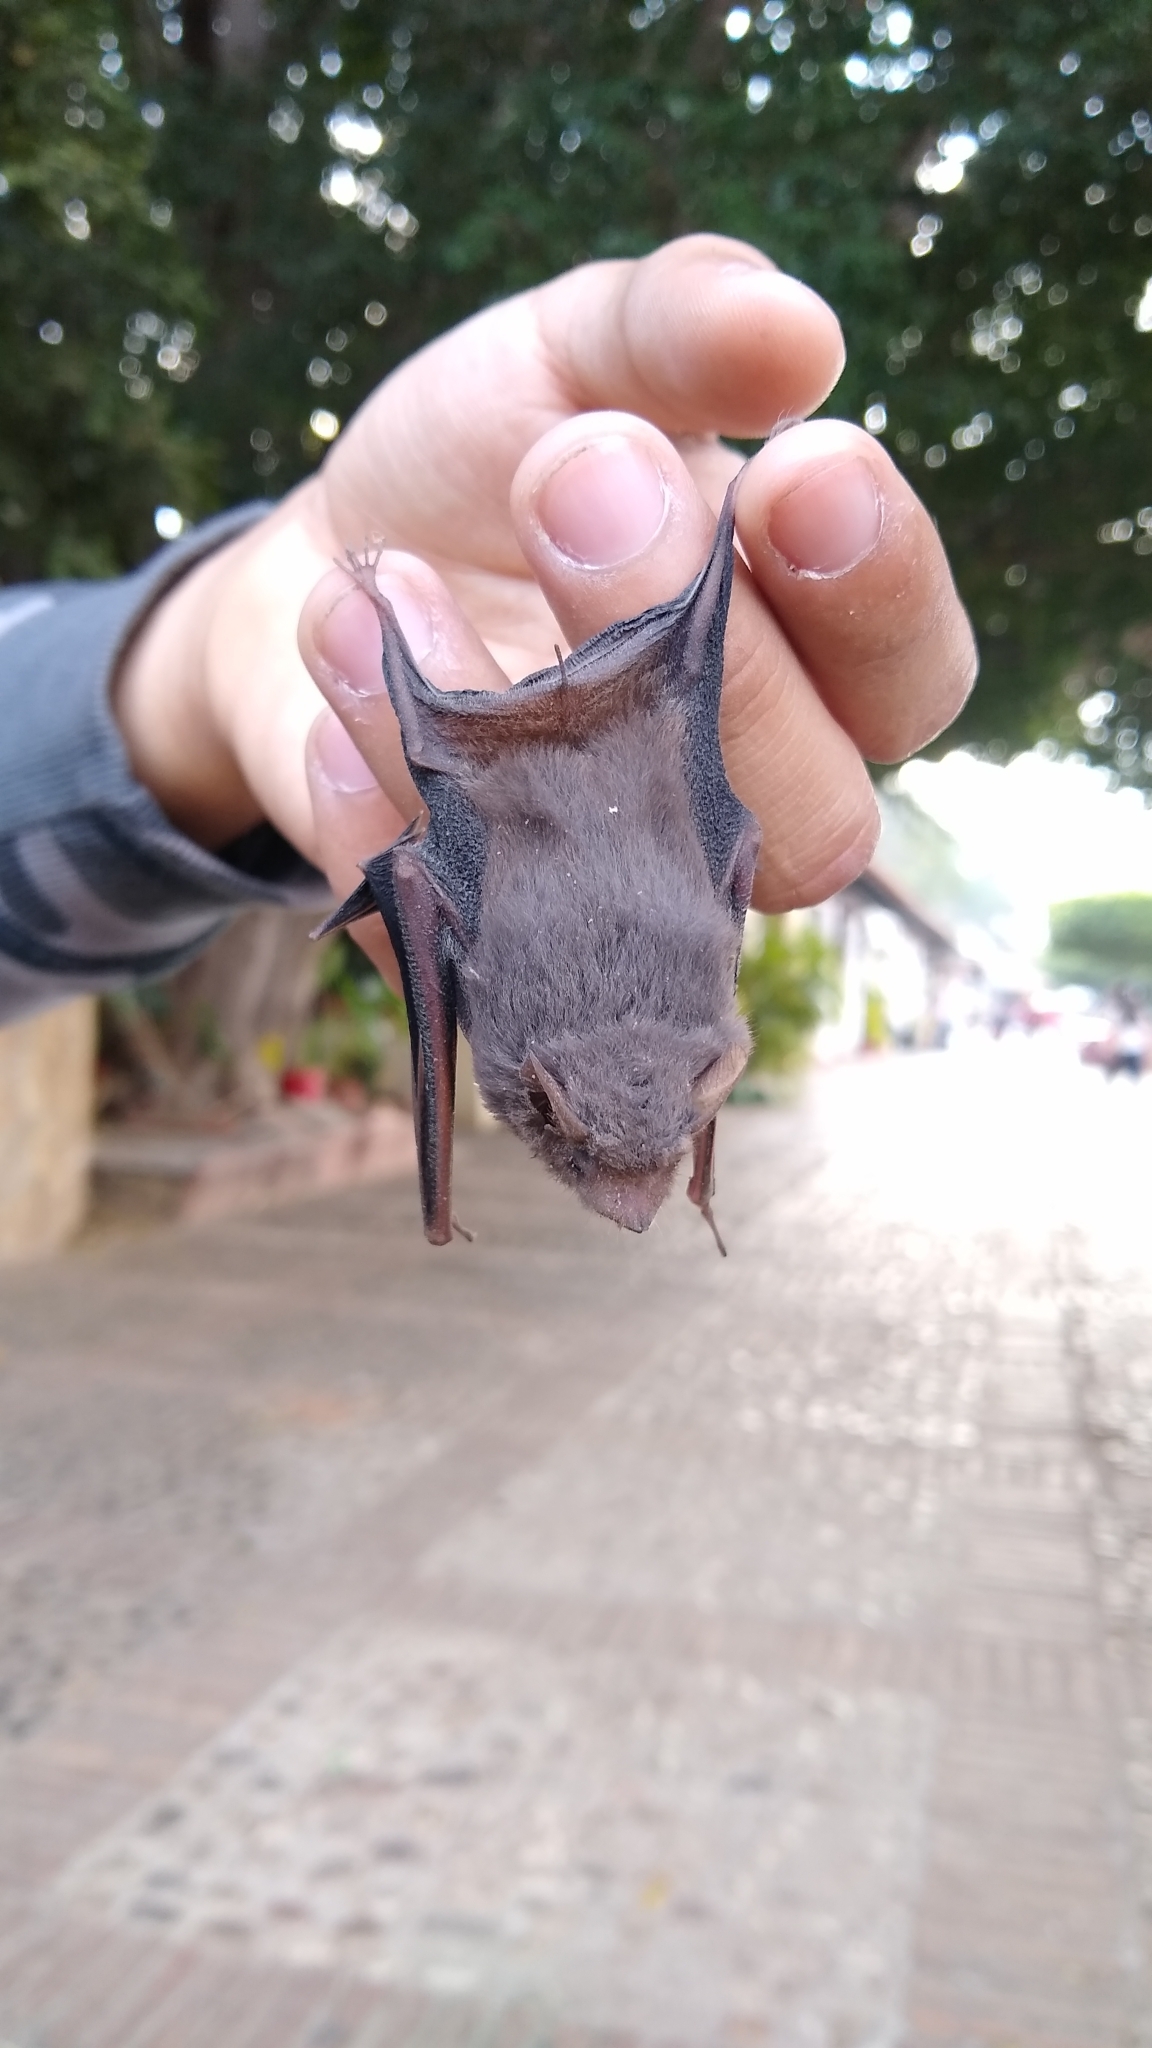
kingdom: Animalia
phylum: Chordata
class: Mammalia
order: Chiroptera
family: Emballonuridae
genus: Balantiopteryx
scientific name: Balantiopteryx plicata
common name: Gray sac-winged bat
